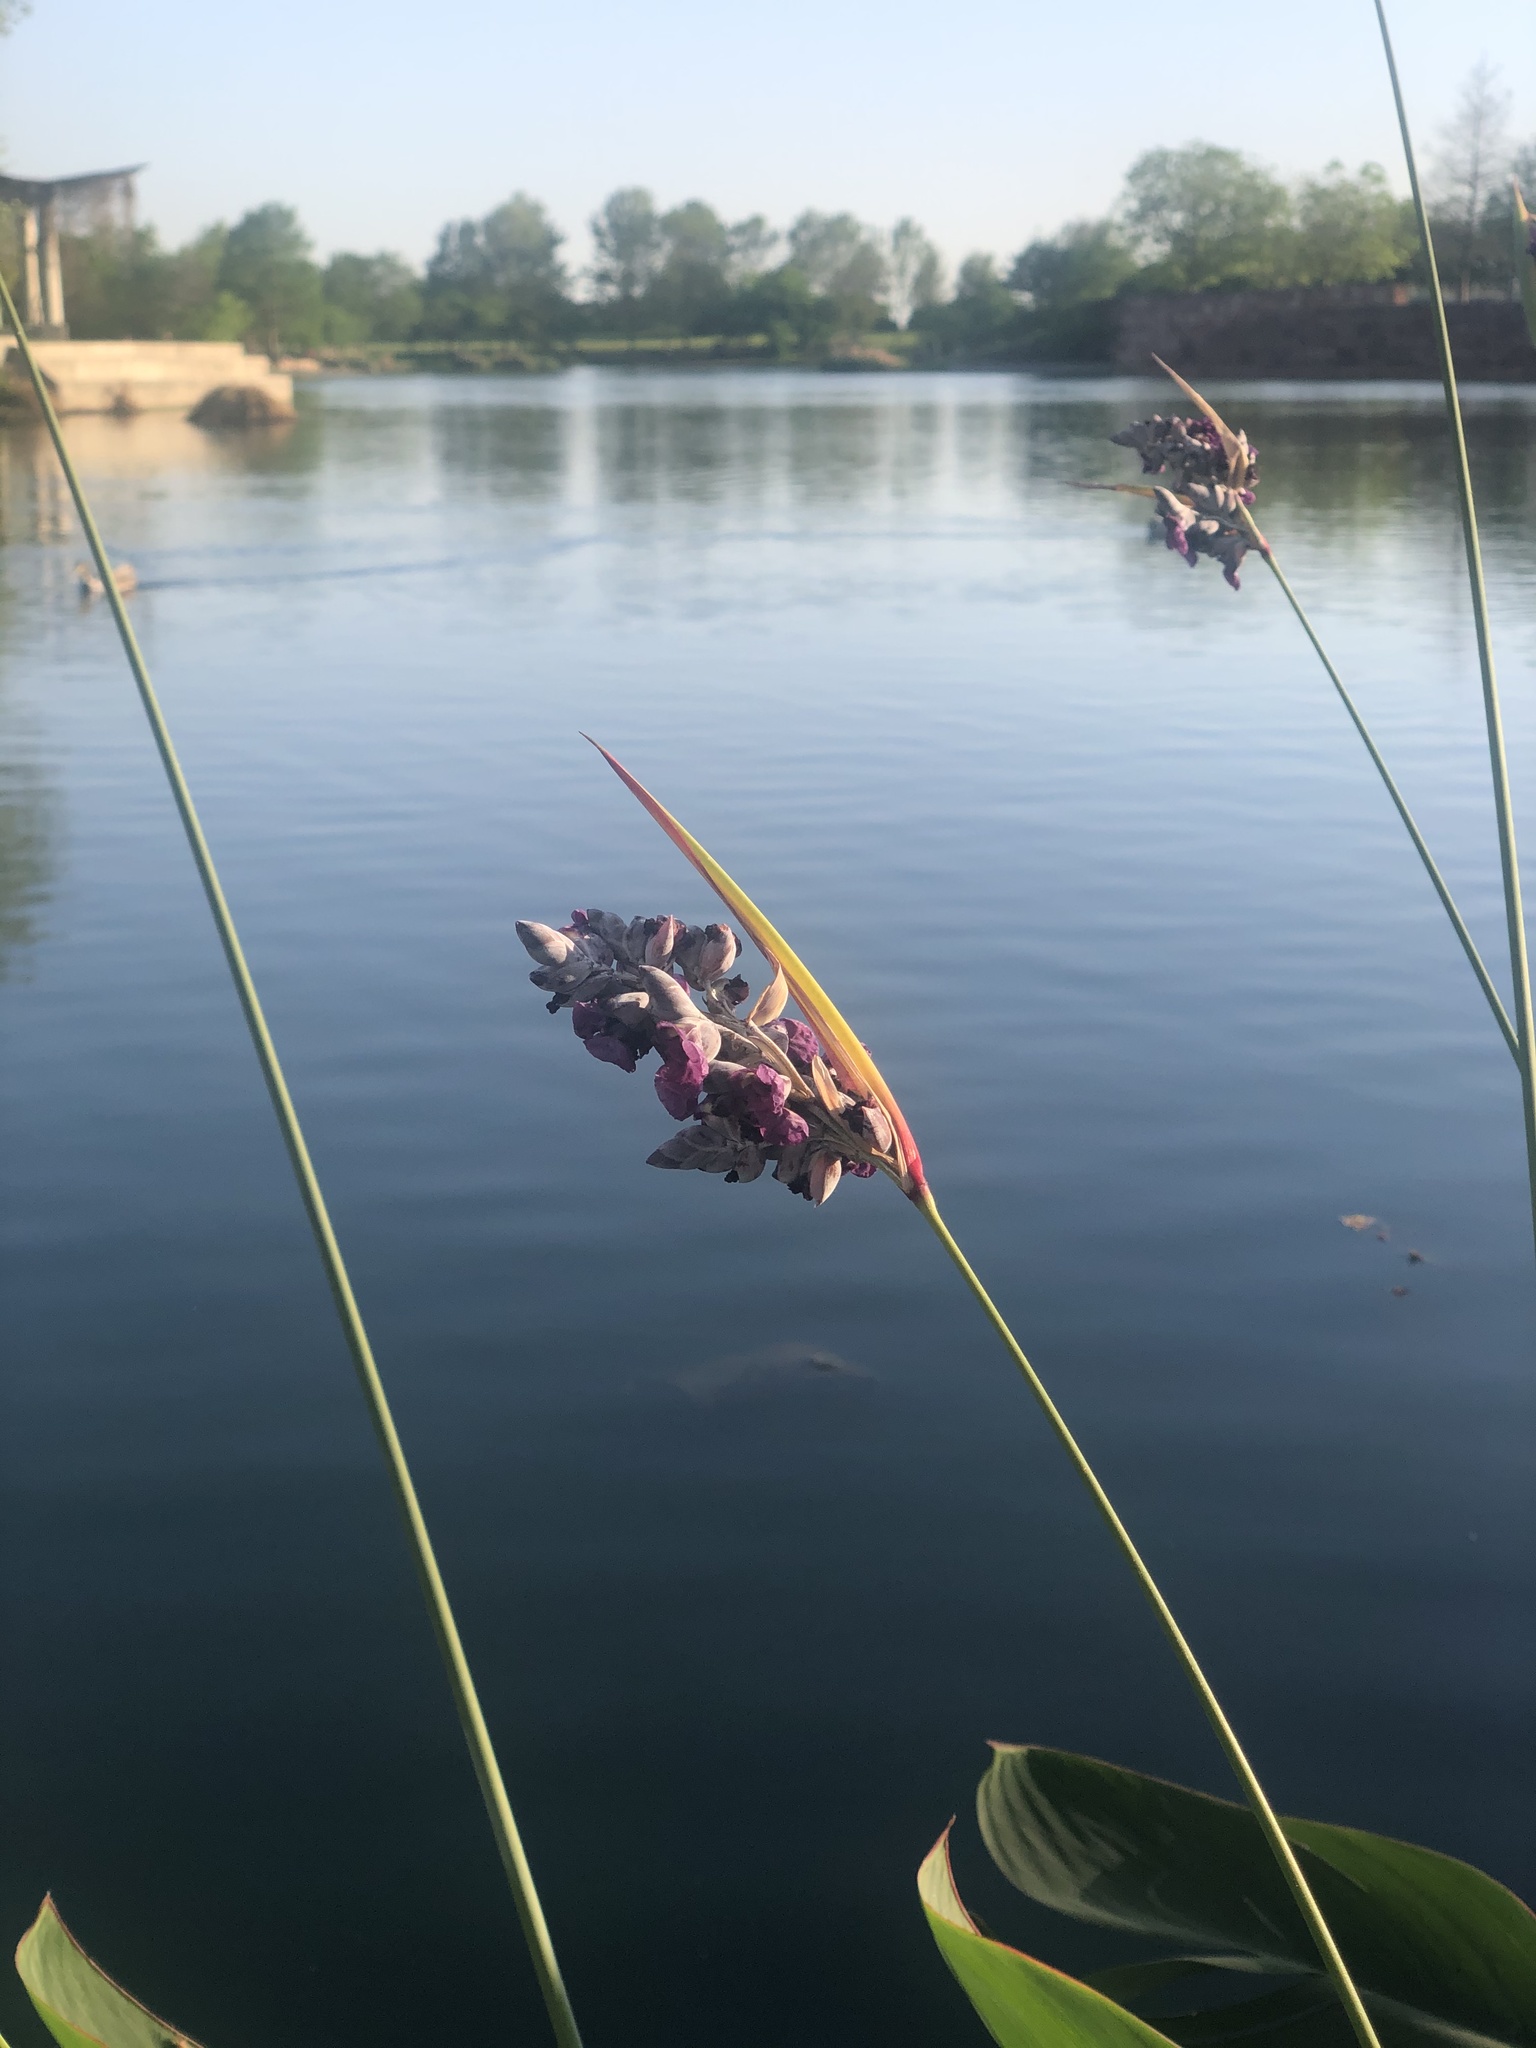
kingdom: Plantae
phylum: Tracheophyta
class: Liliopsida
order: Zingiberales
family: Marantaceae
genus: Thalia
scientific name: Thalia dealbata
